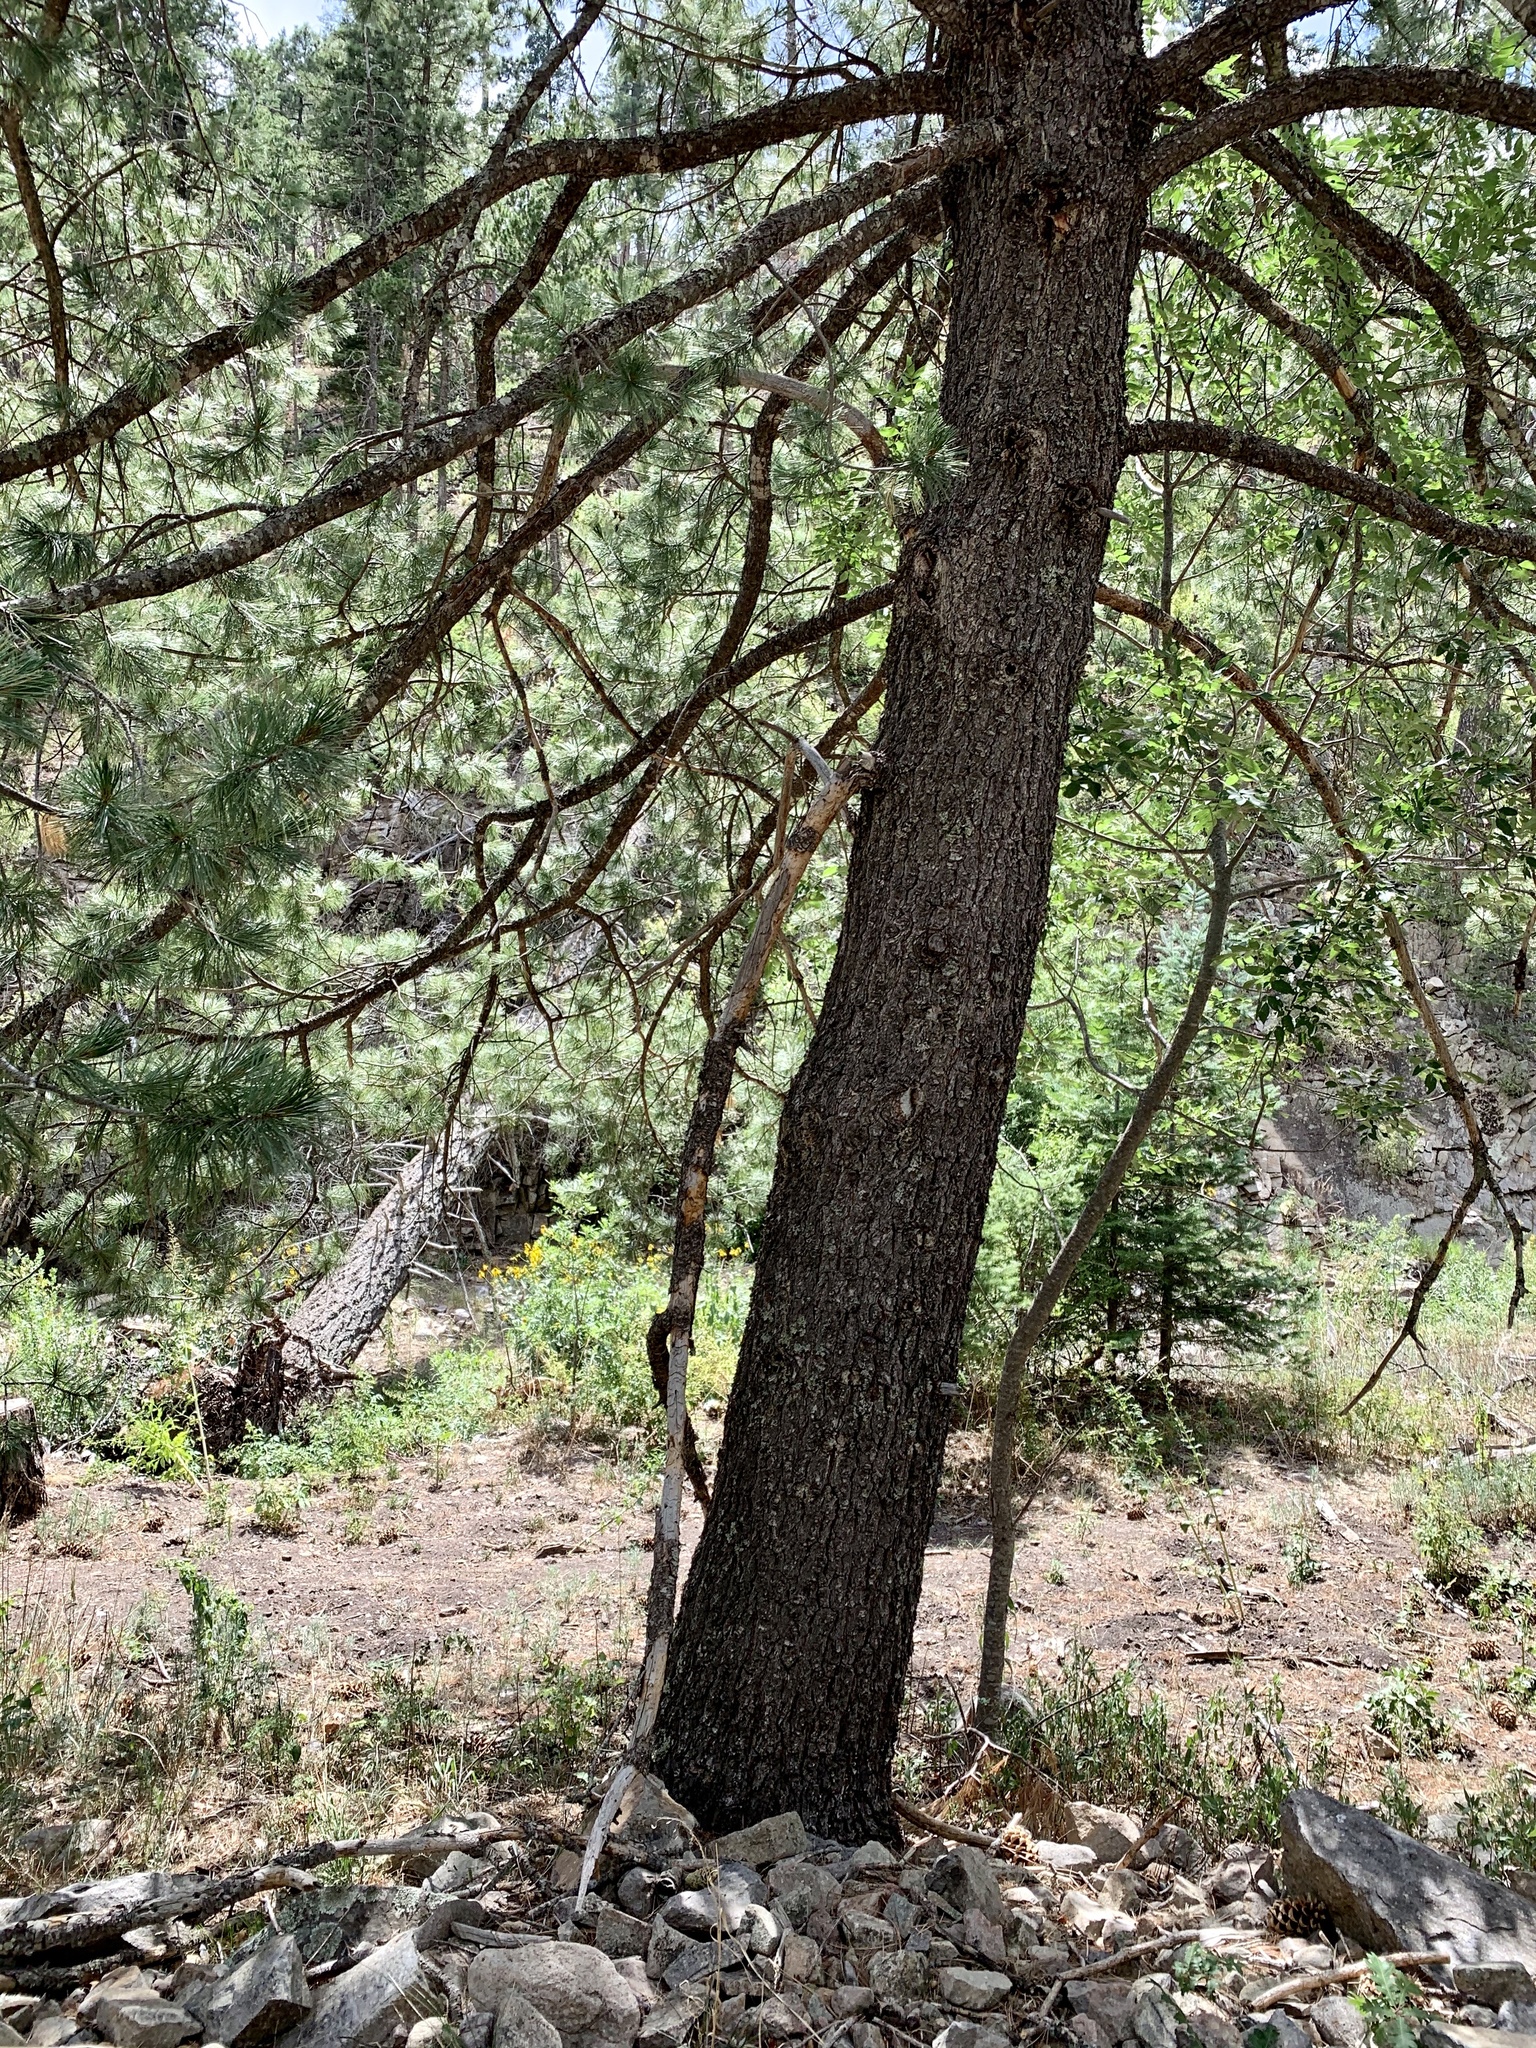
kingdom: Plantae
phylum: Tracheophyta
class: Pinopsida
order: Pinales
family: Pinaceae
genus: Pinus
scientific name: Pinus strobiformis
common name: Southwestern white pine
